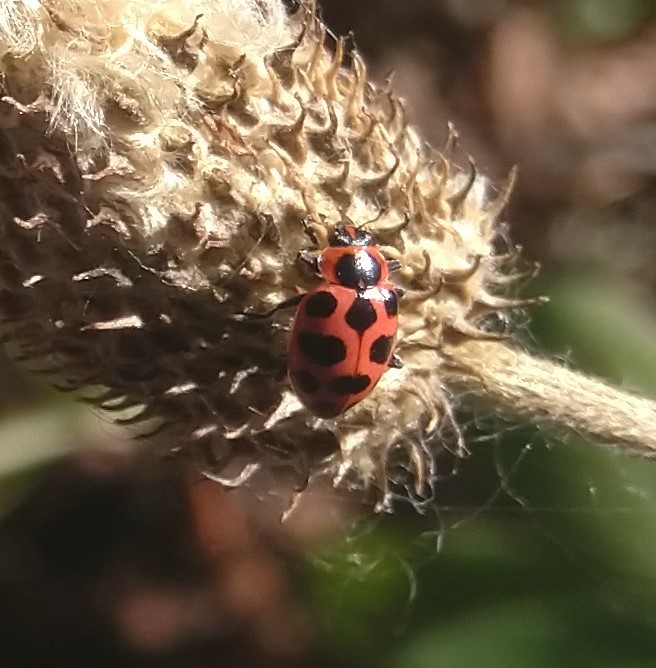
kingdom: Animalia
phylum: Arthropoda
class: Insecta
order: Coleoptera
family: Coccinellidae
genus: Coleomegilla
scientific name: Coleomegilla maculata
